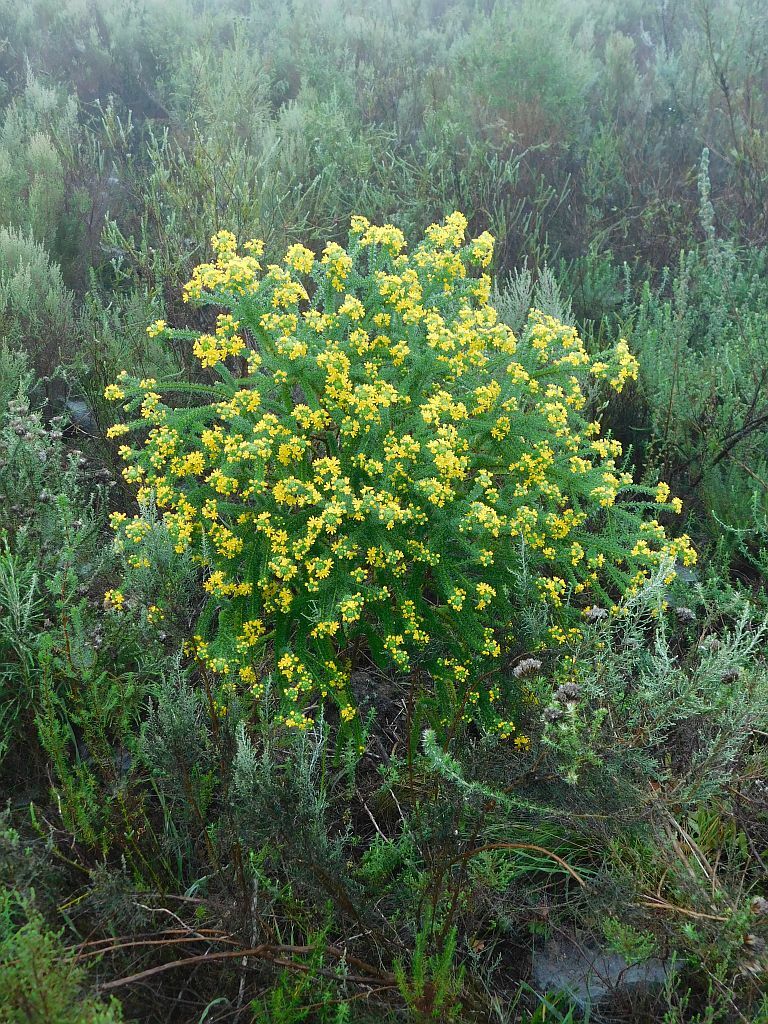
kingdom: Plantae
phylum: Tracheophyta
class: Magnoliopsida
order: Asterales
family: Asteraceae
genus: Euryops
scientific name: Euryops virgineus
